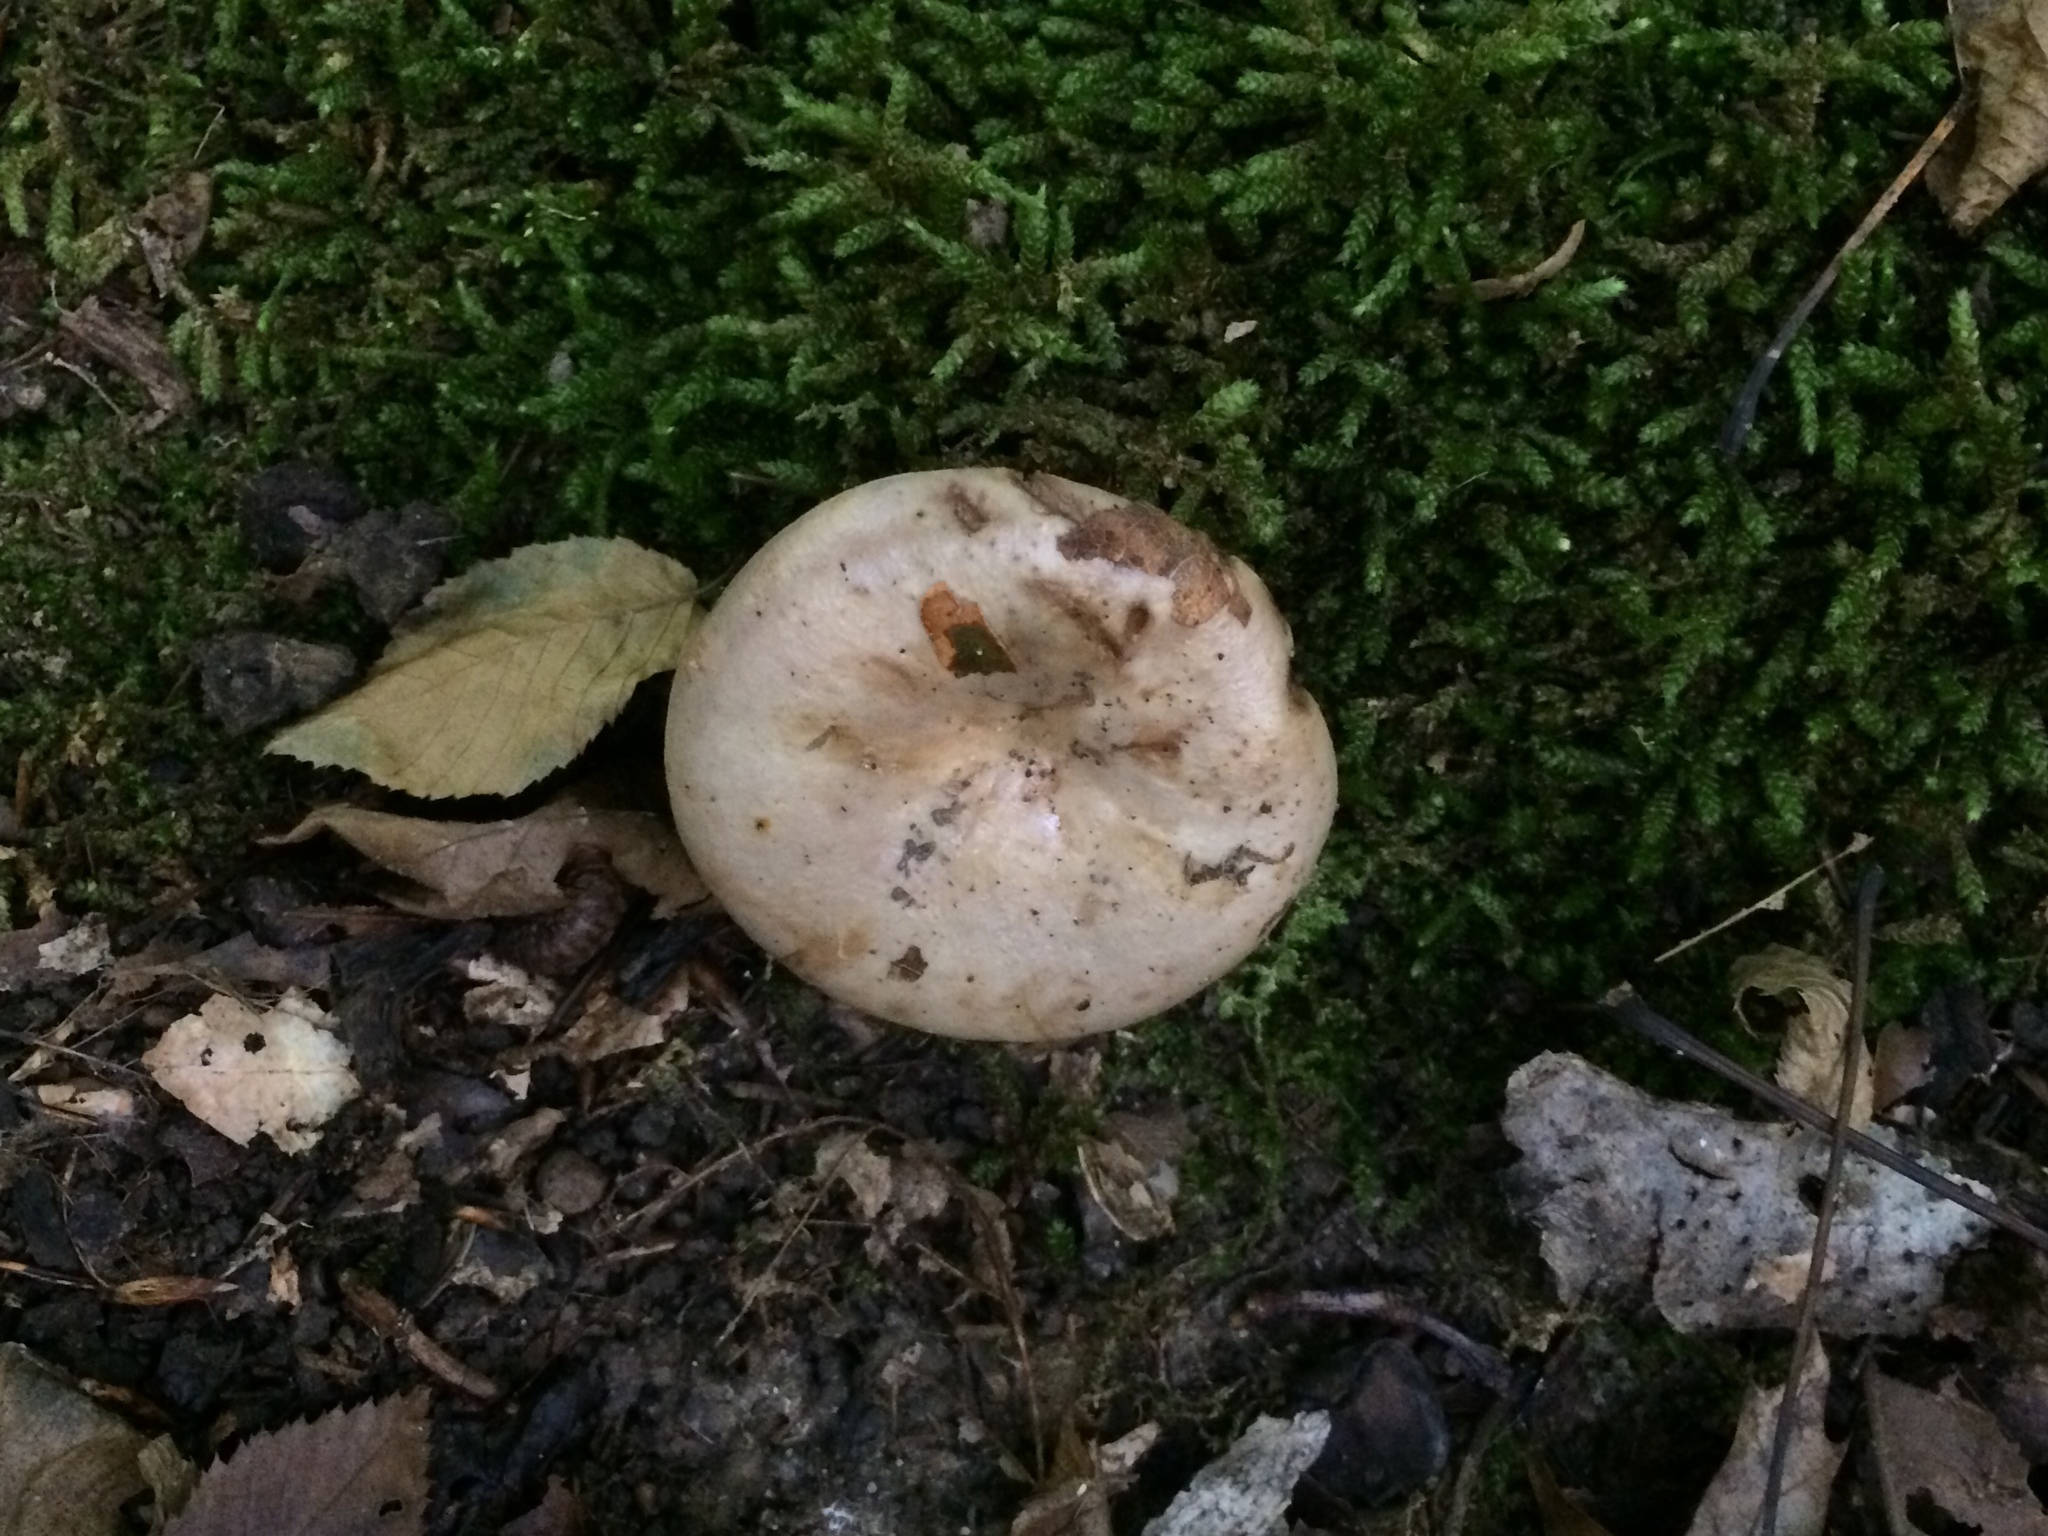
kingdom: Fungi
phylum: Basidiomycota
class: Agaricomycetes
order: Russulales
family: Russulaceae
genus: Lactarius
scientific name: Lactarius argillaceifolius
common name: Clay-gilled milkcap
